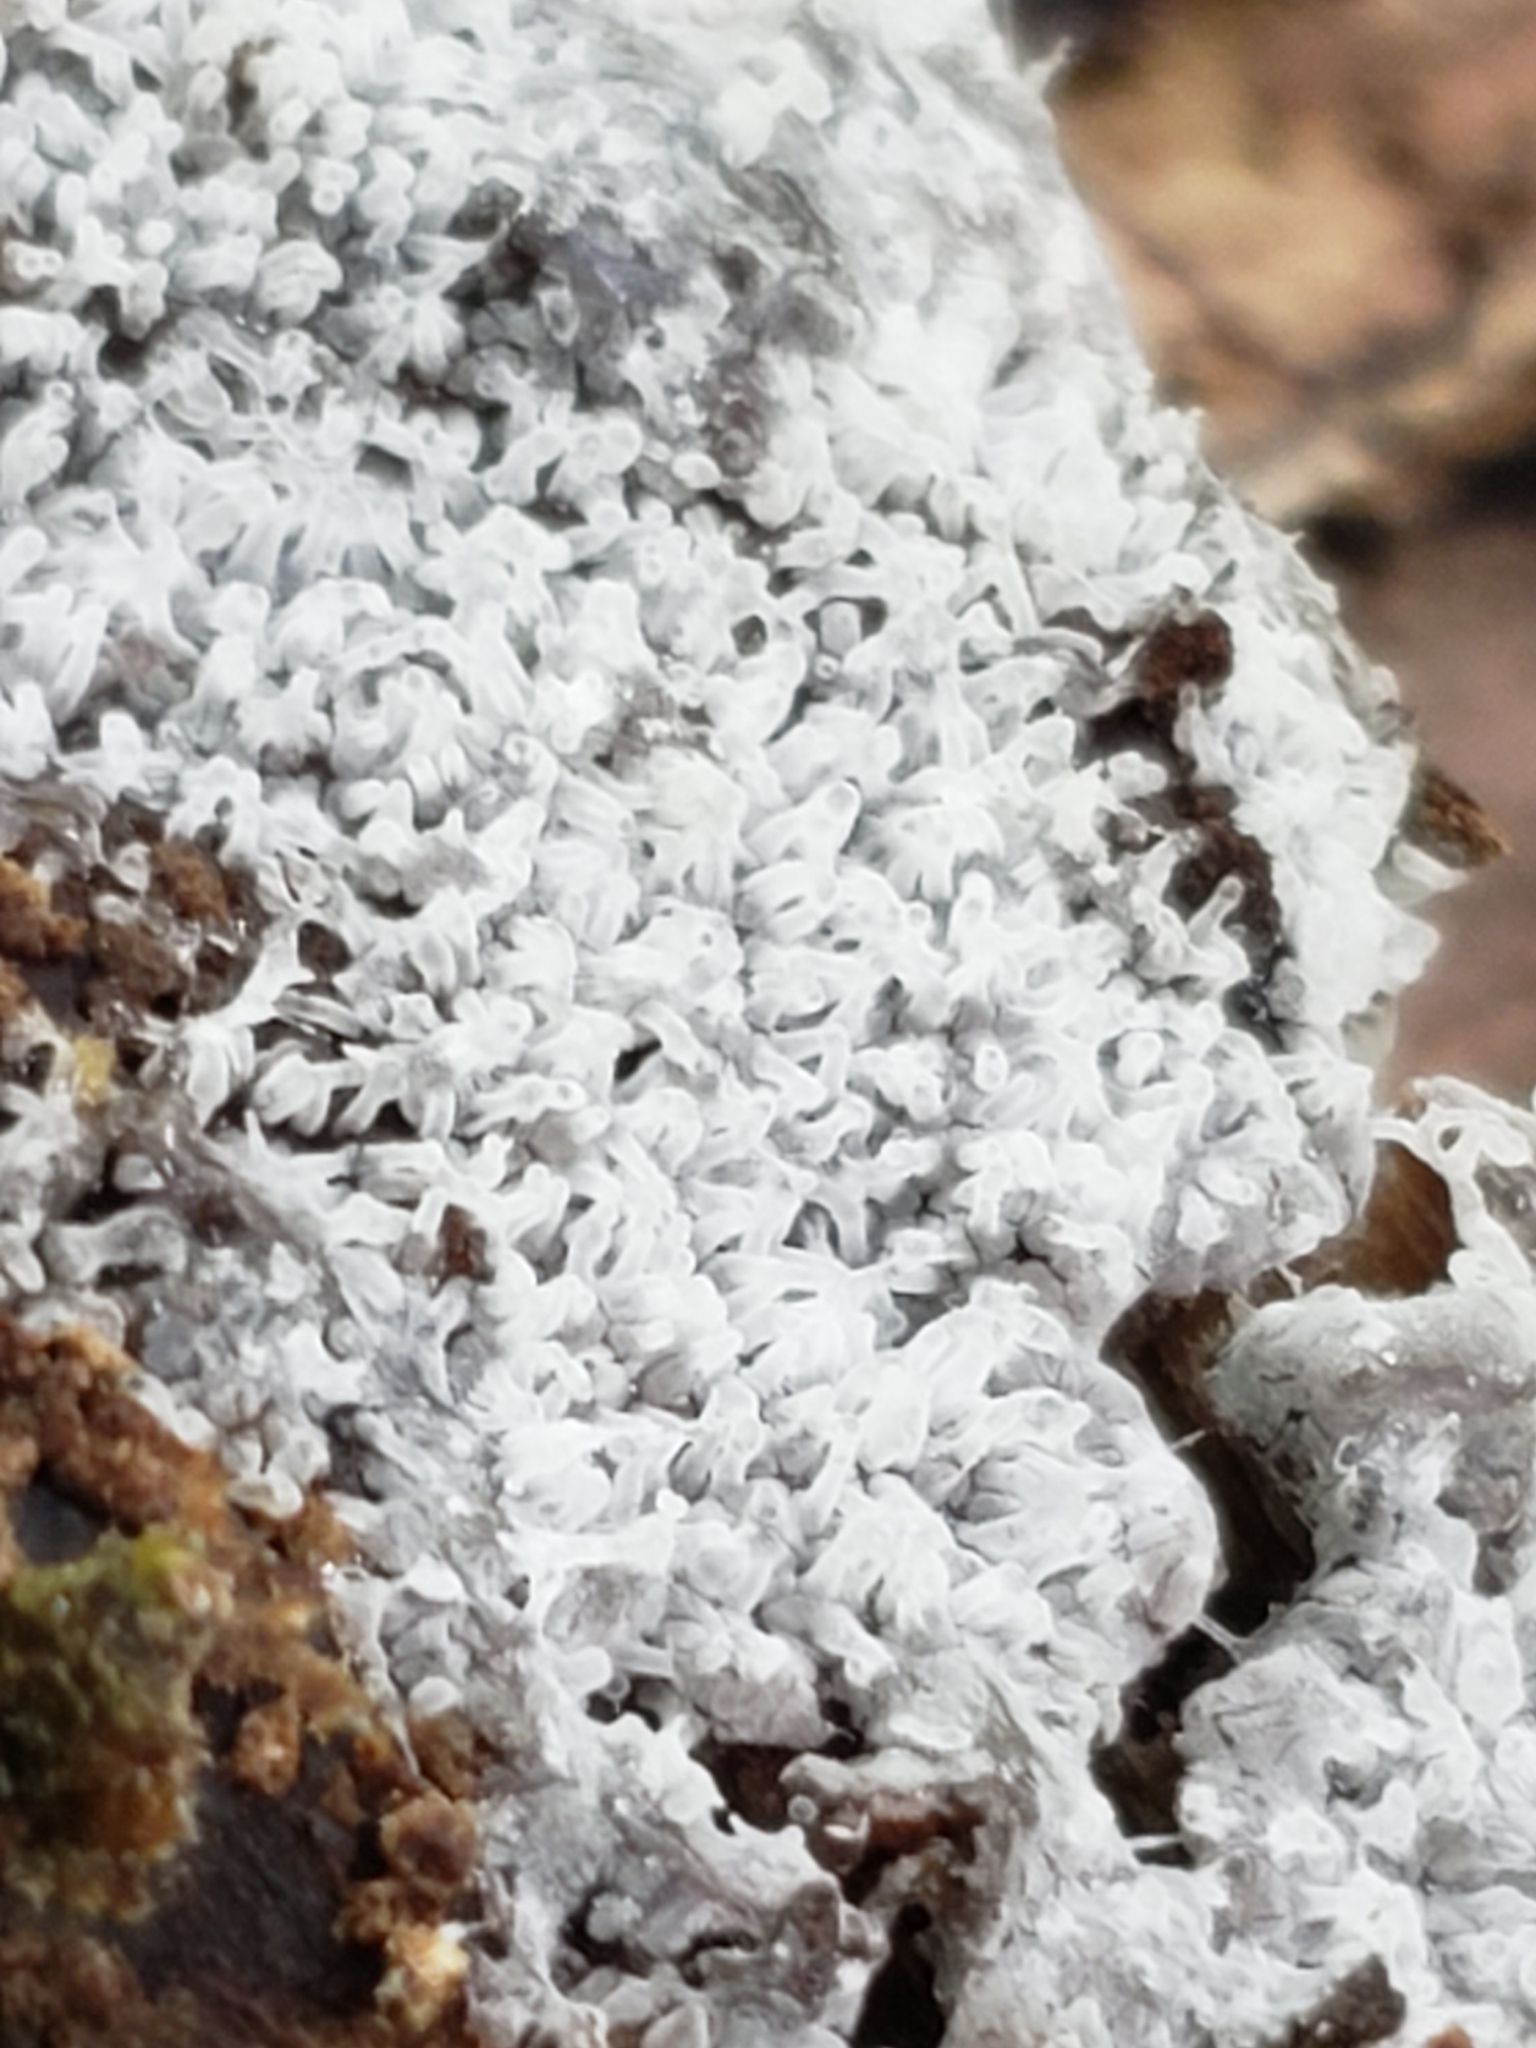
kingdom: Protozoa
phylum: Mycetozoa
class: Protosteliomycetes
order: Ceratiomyxales
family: Ceratiomyxaceae
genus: Ceratiomyxa
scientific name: Ceratiomyxa fruticulosa
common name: Honeycomb coral slime mold
